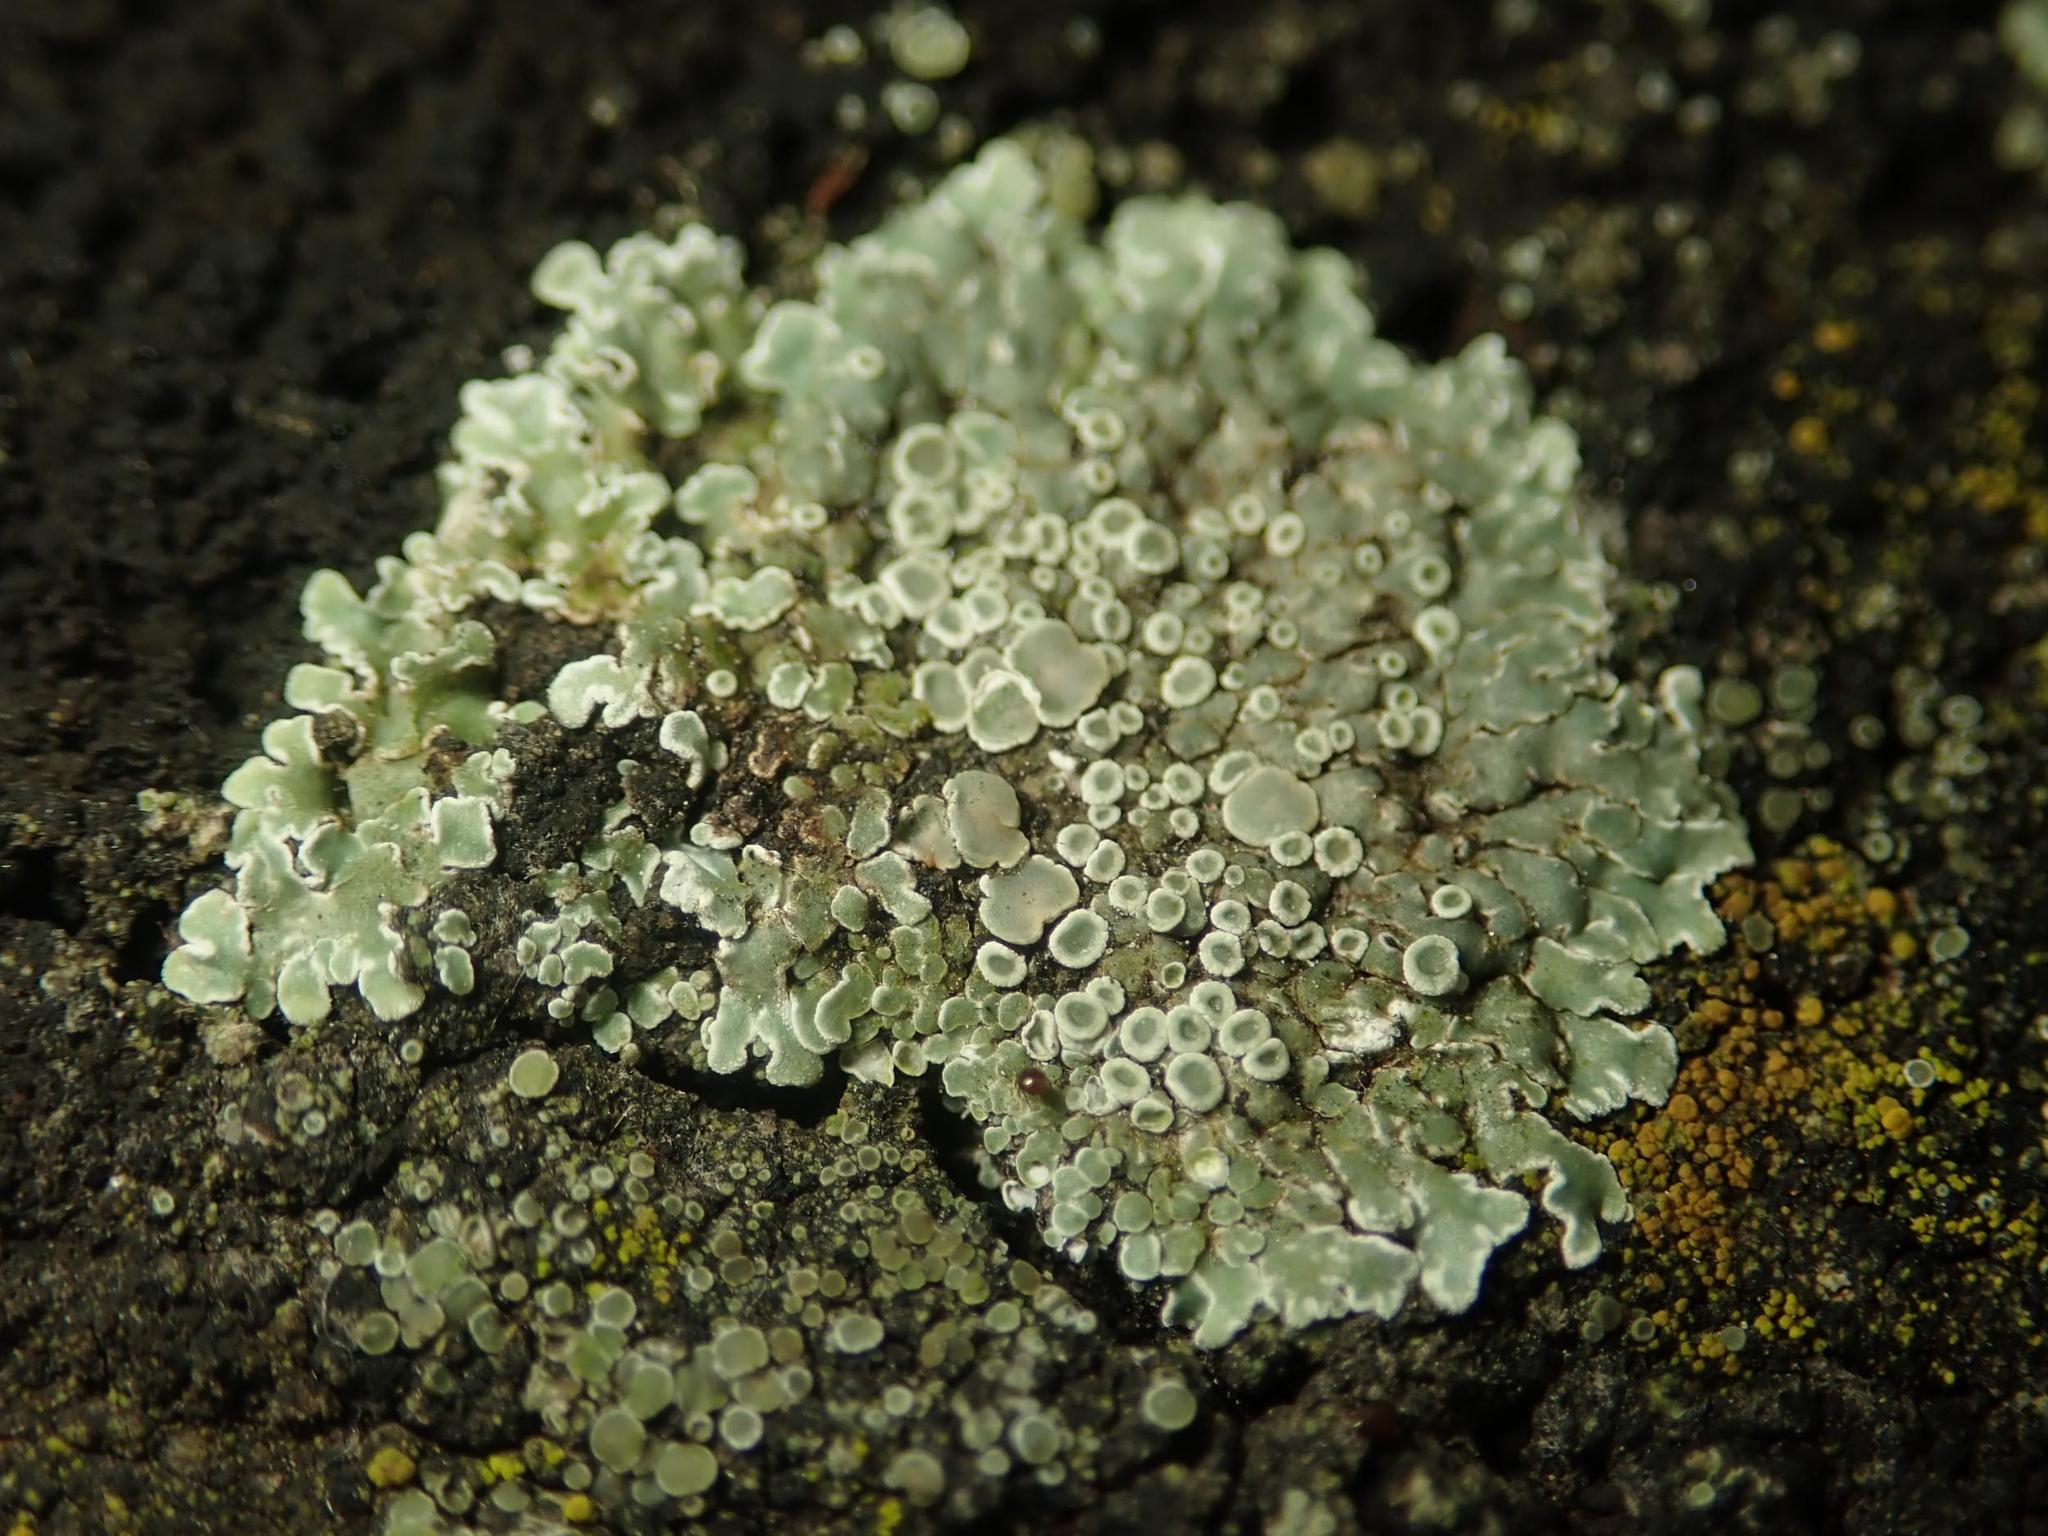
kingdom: Fungi
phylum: Ascomycota
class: Lecanoromycetes
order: Lecanorales
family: Lecanoraceae
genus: Protoparmeliopsis
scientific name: Protoparmeliopsis muralis
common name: Stonewall rim lichen
